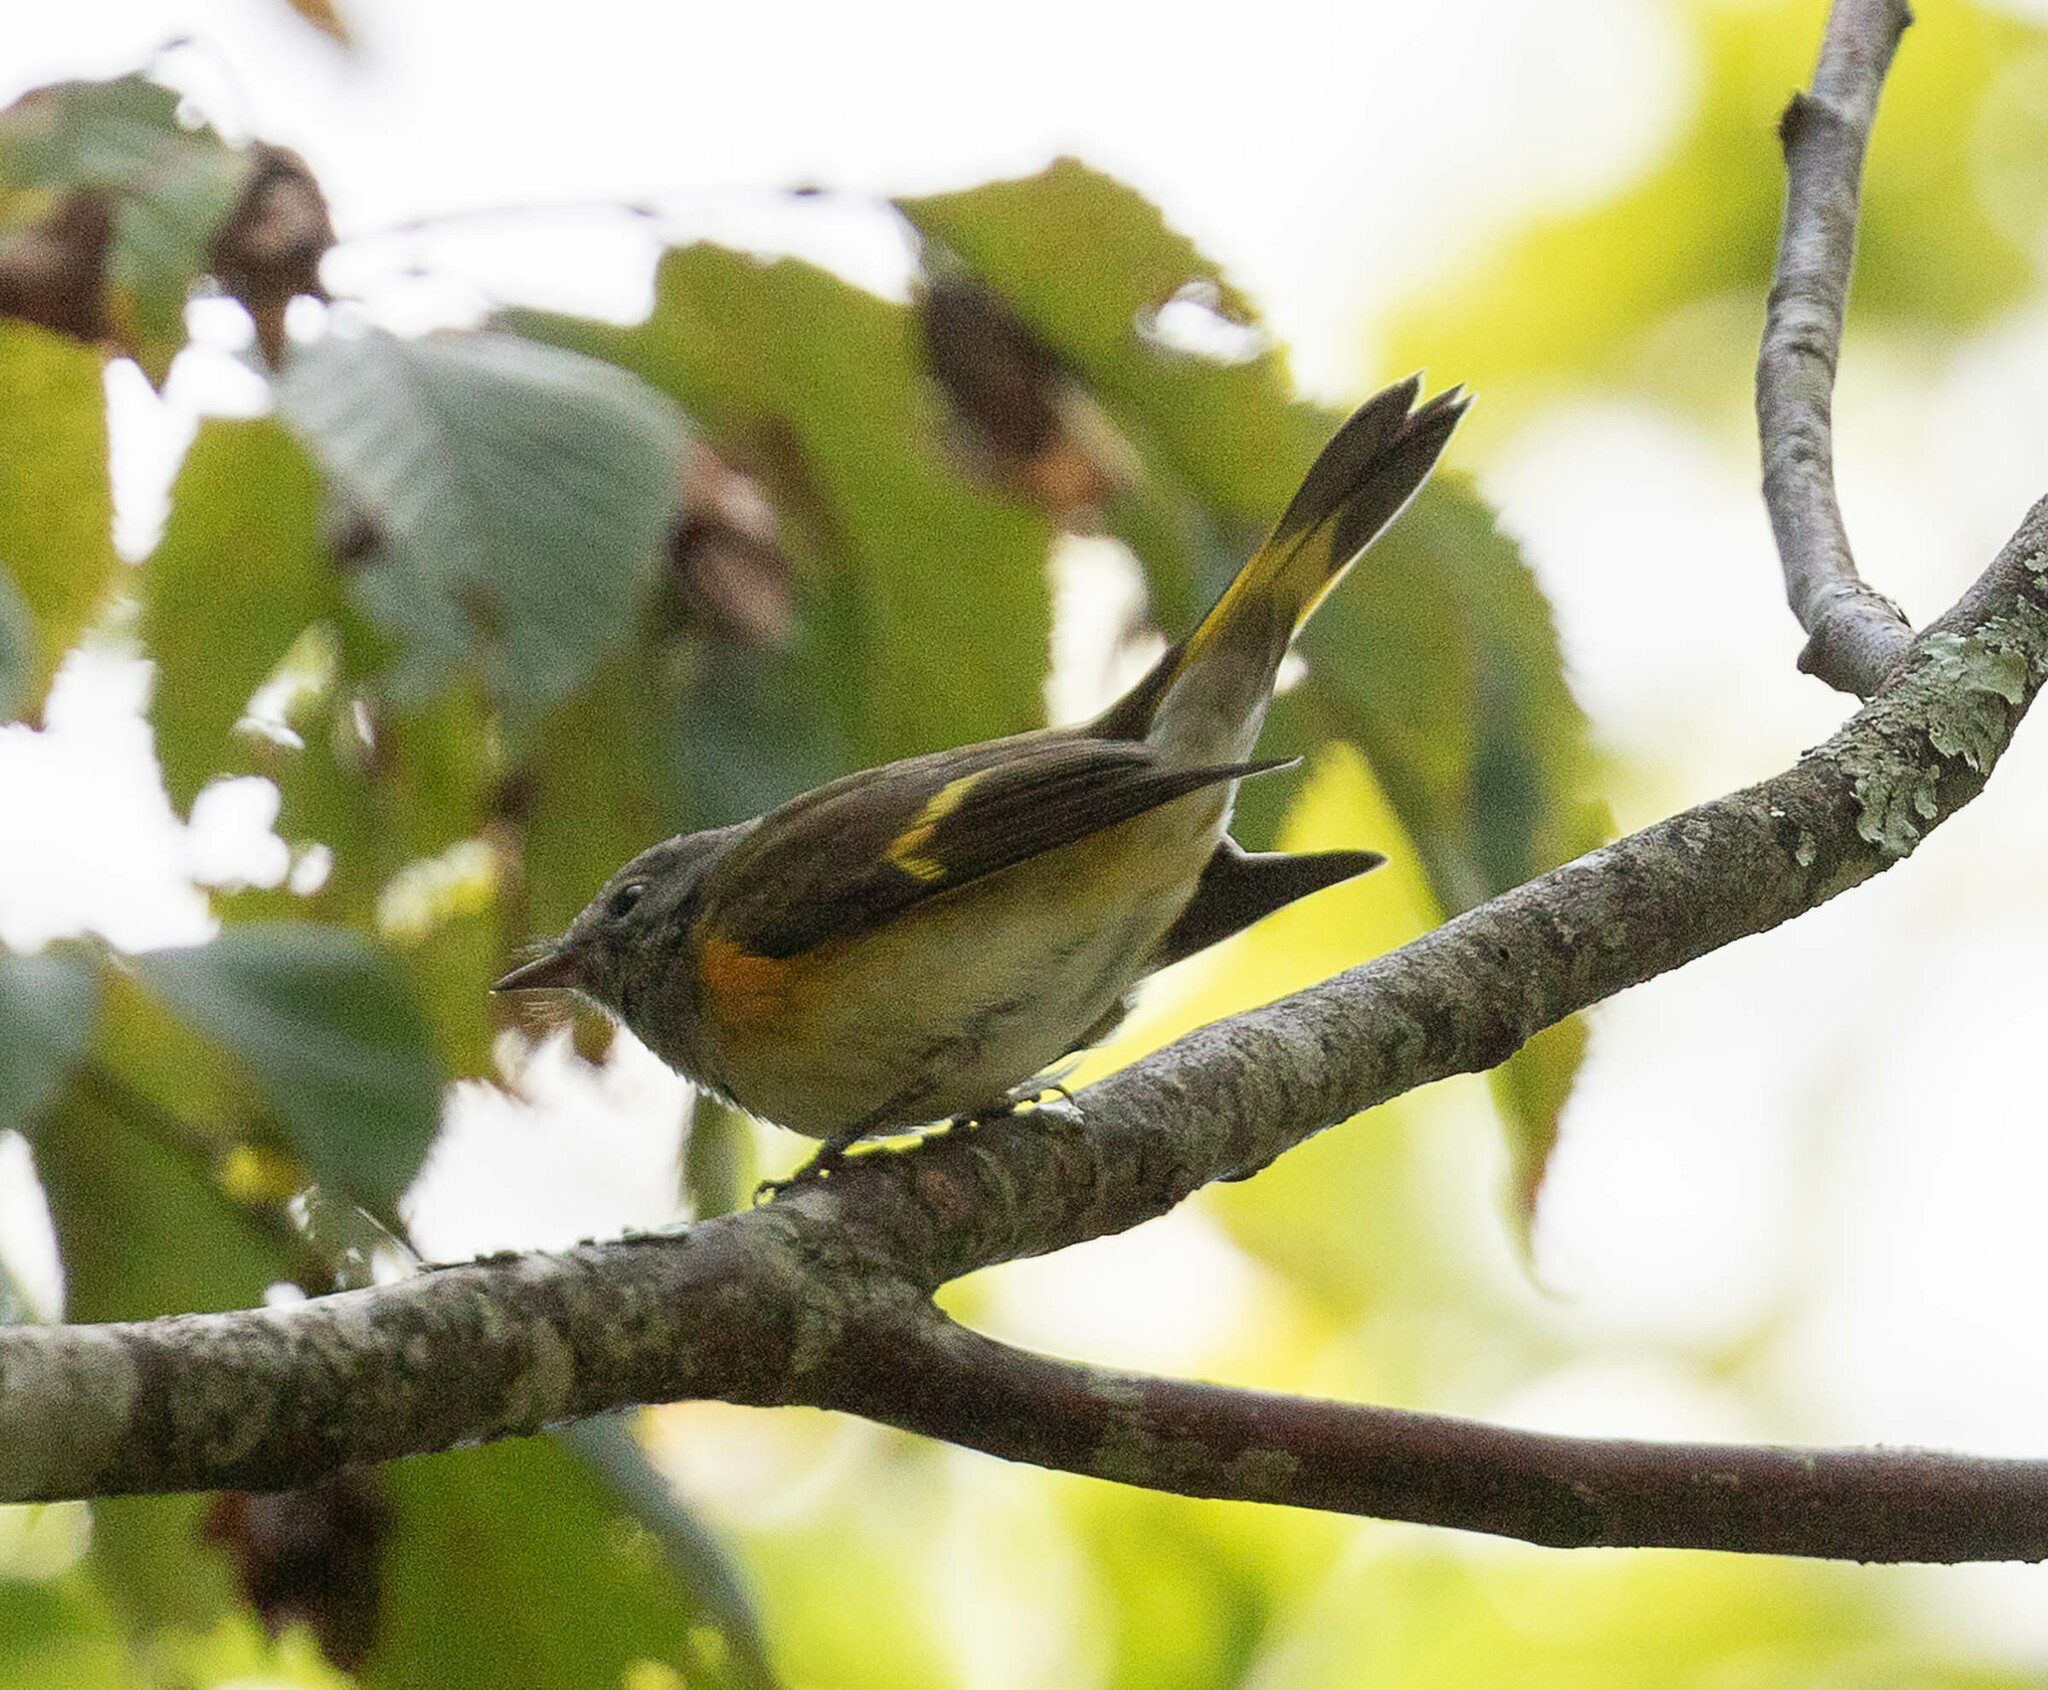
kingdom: Animalia
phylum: Chordata
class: Aves
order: Passeriformes
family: Parulidae
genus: Setophaga
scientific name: Setophaga ruticilla
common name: American redstart
